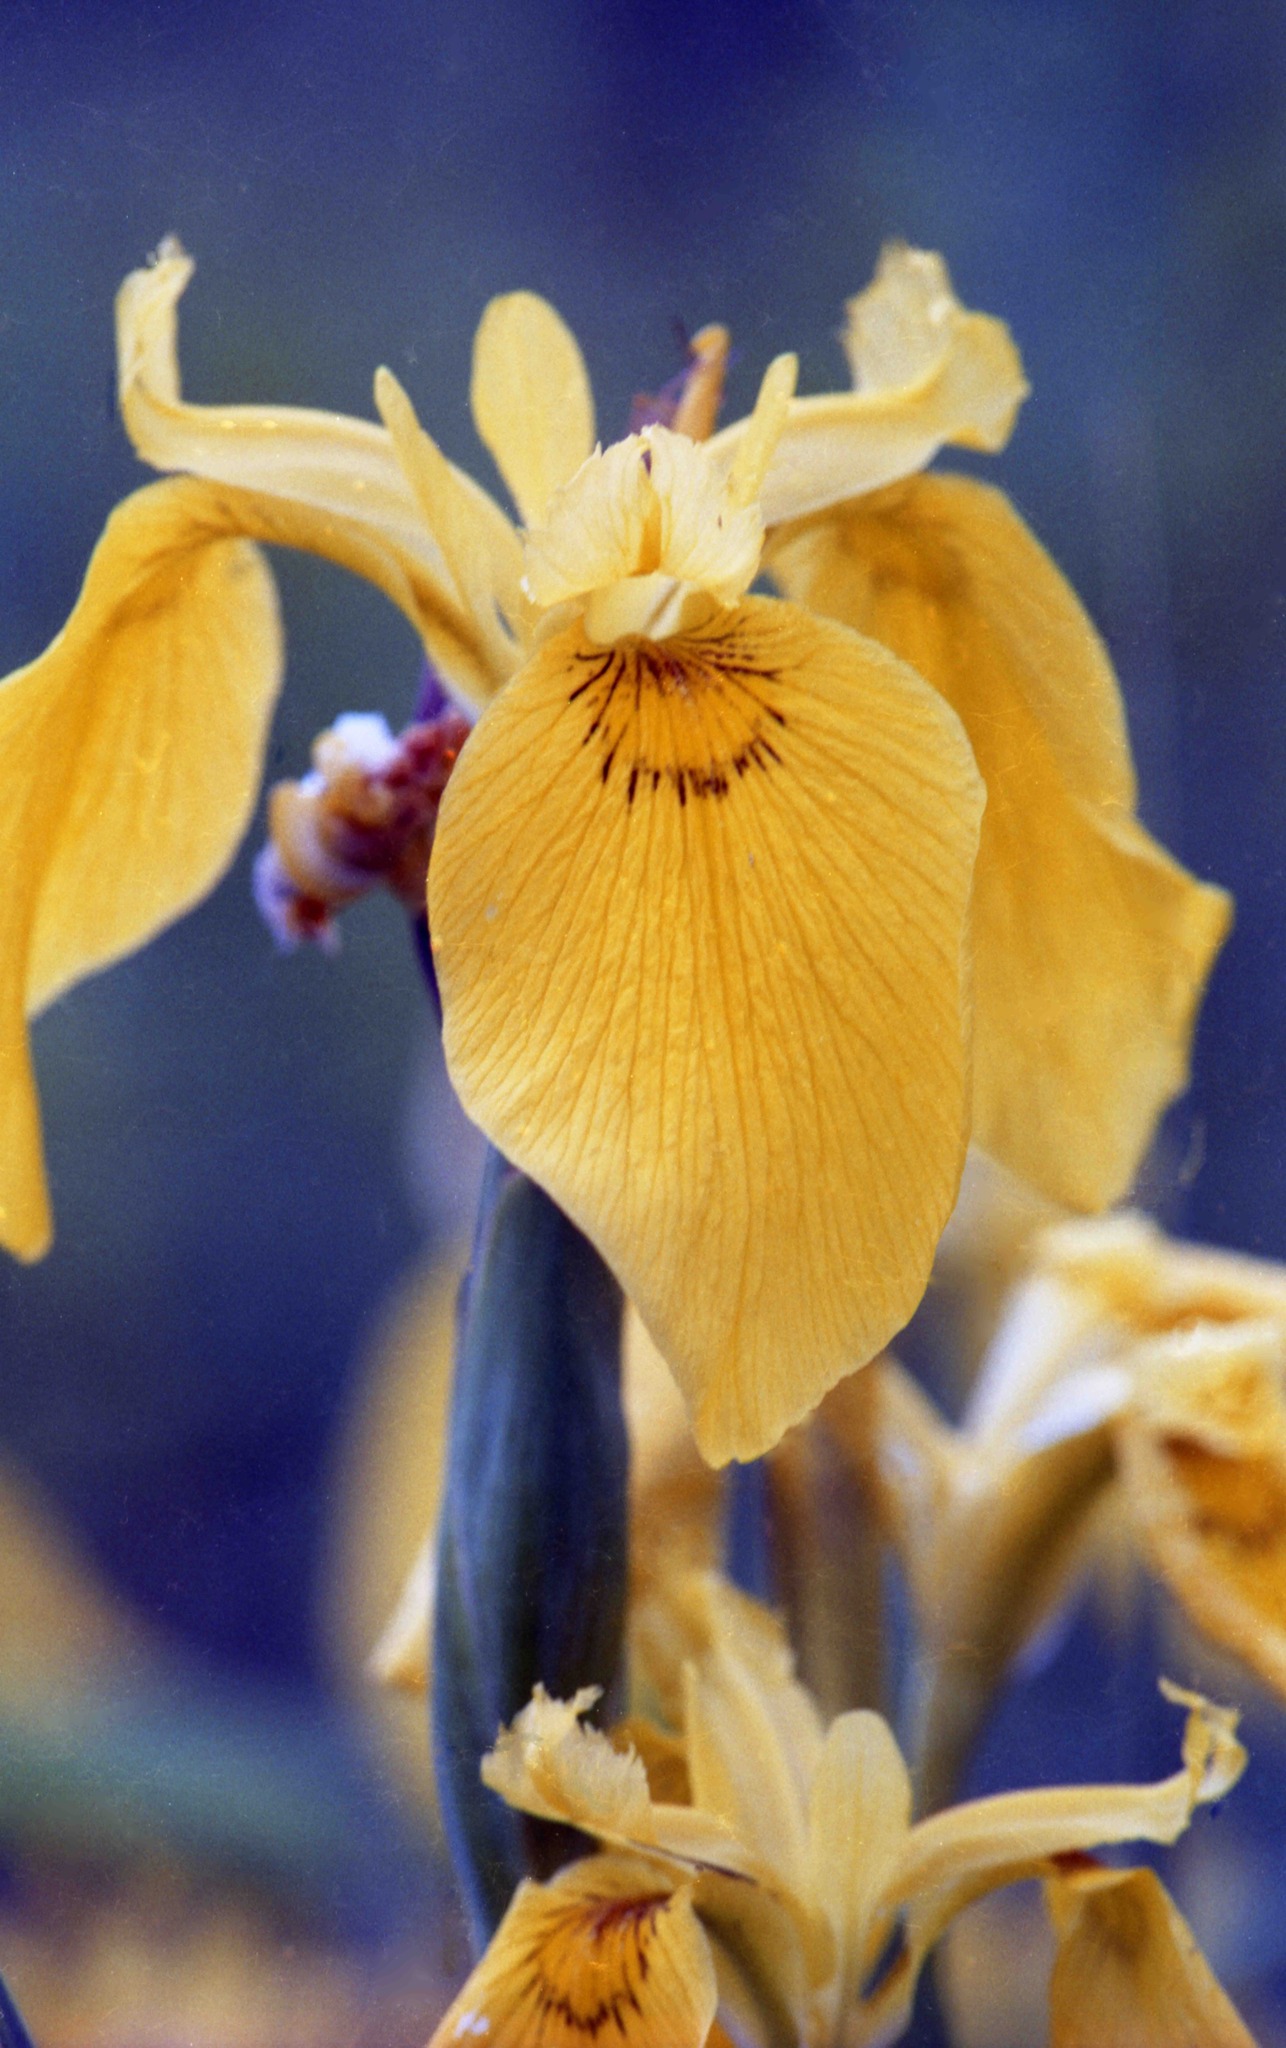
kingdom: Plantae
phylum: Tracheophyta
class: Liliopsida
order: Asparagales
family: Iridaceae
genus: Iris
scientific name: Iris pseudacorus
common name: Yellow flag
